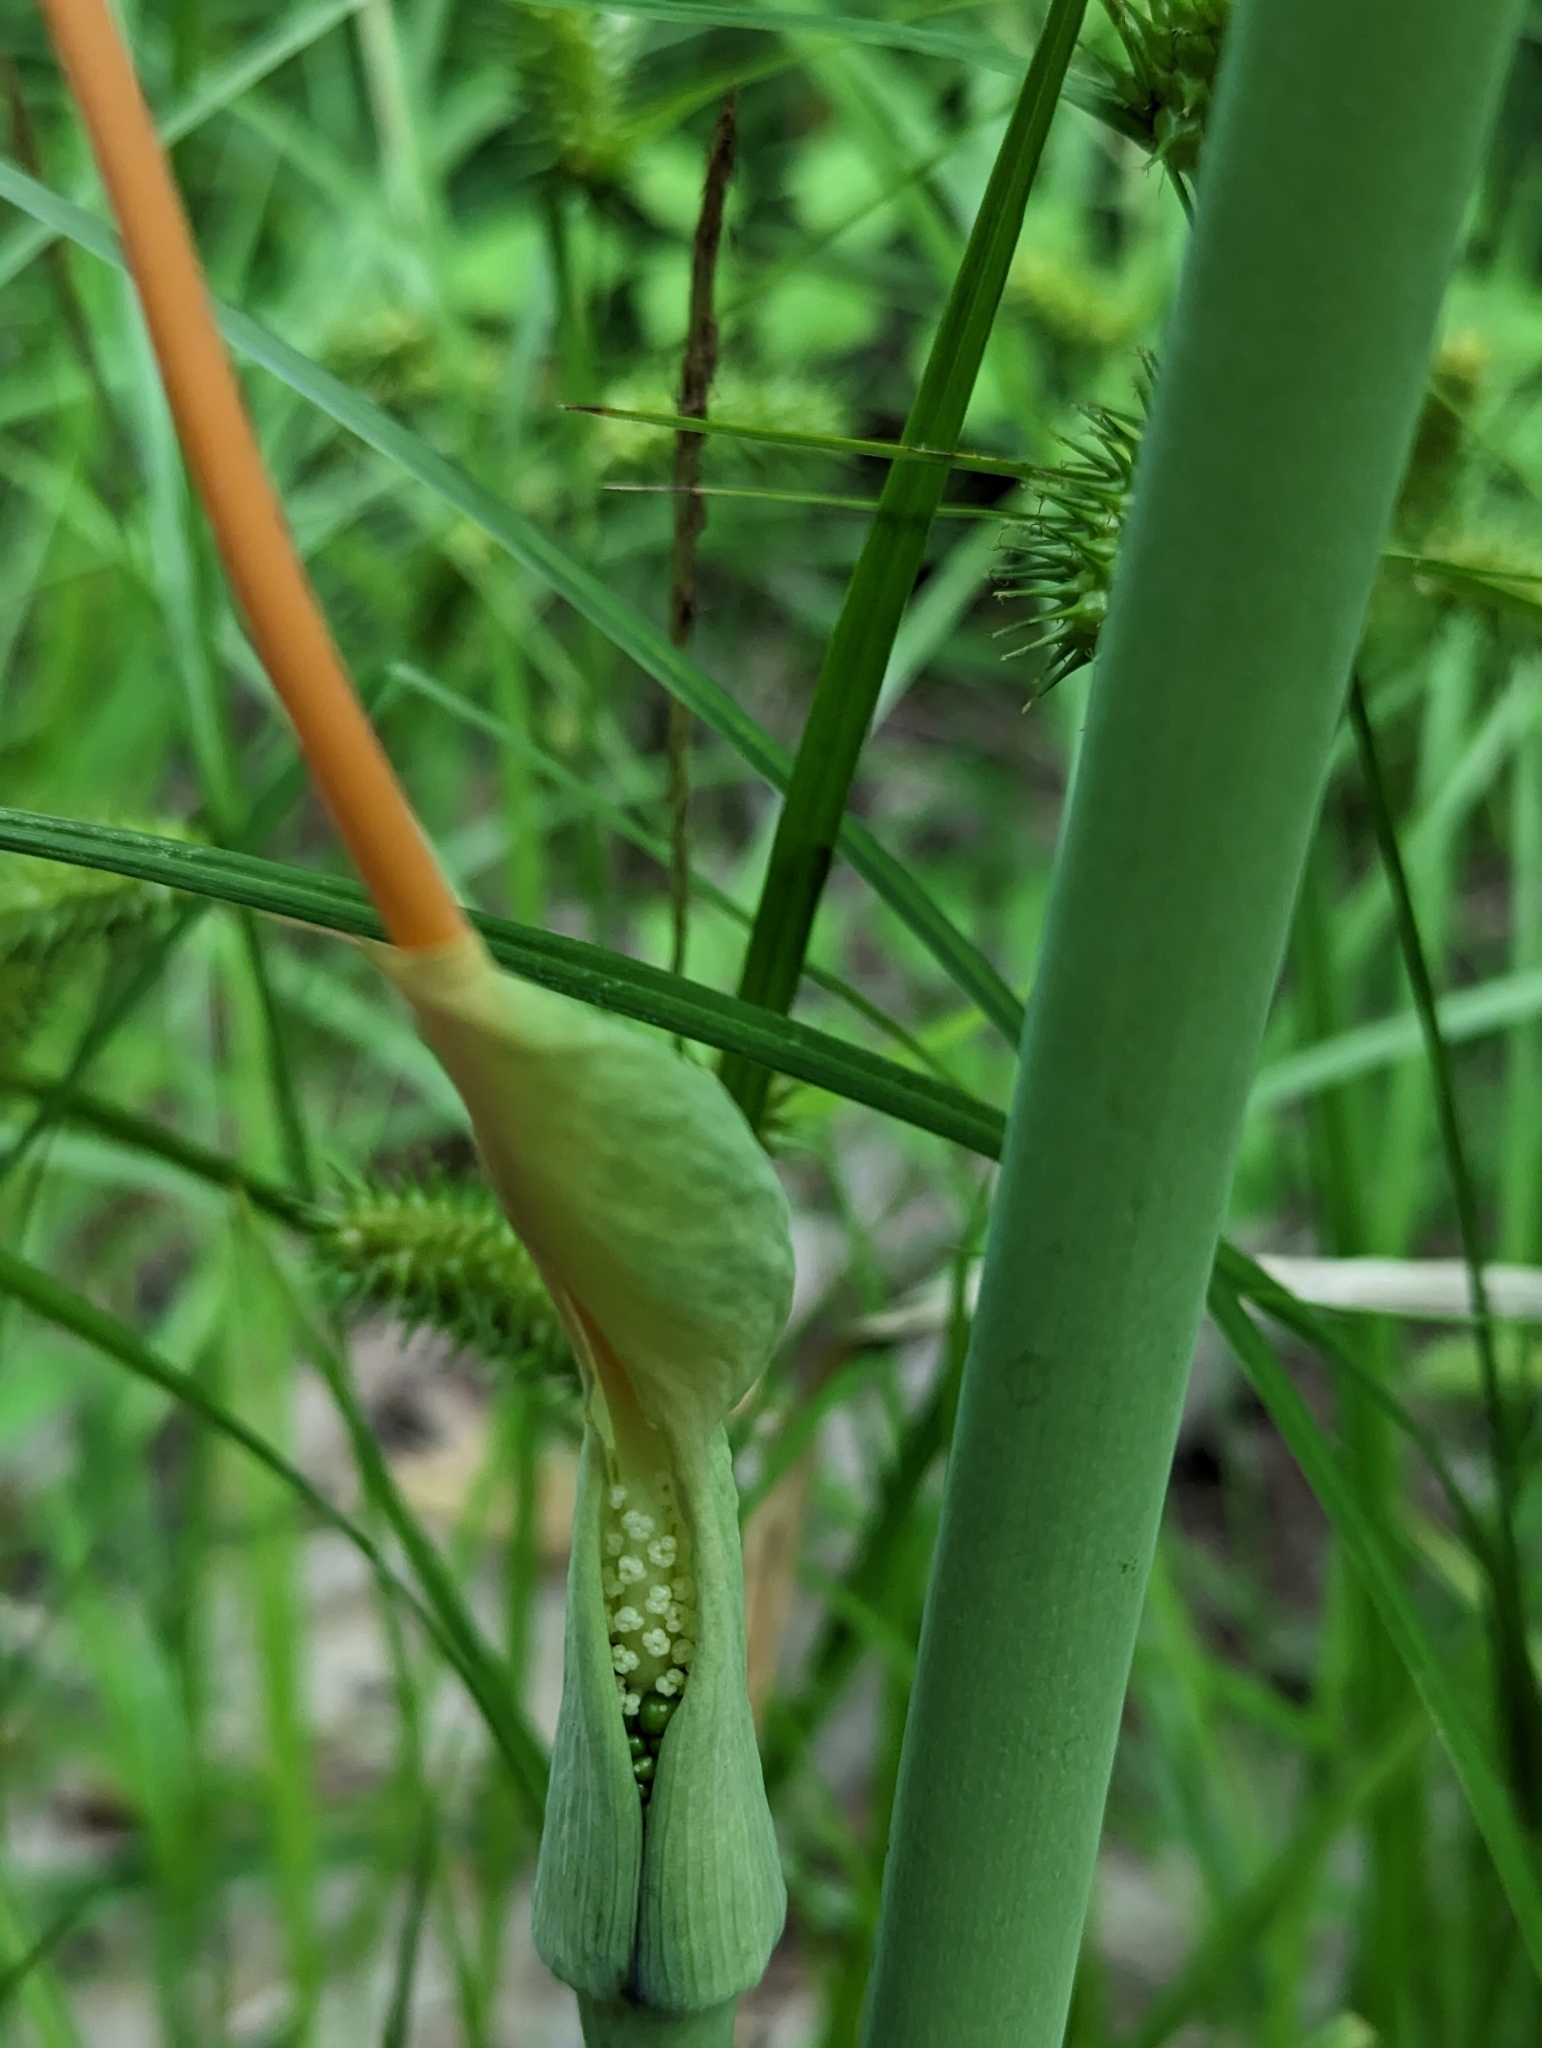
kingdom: Plantae
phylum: Tracheophyta
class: Liliopsida
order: Alismatales
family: Araceae
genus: Arisaema
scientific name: Arisaema dracontium
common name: Dragon-arum
